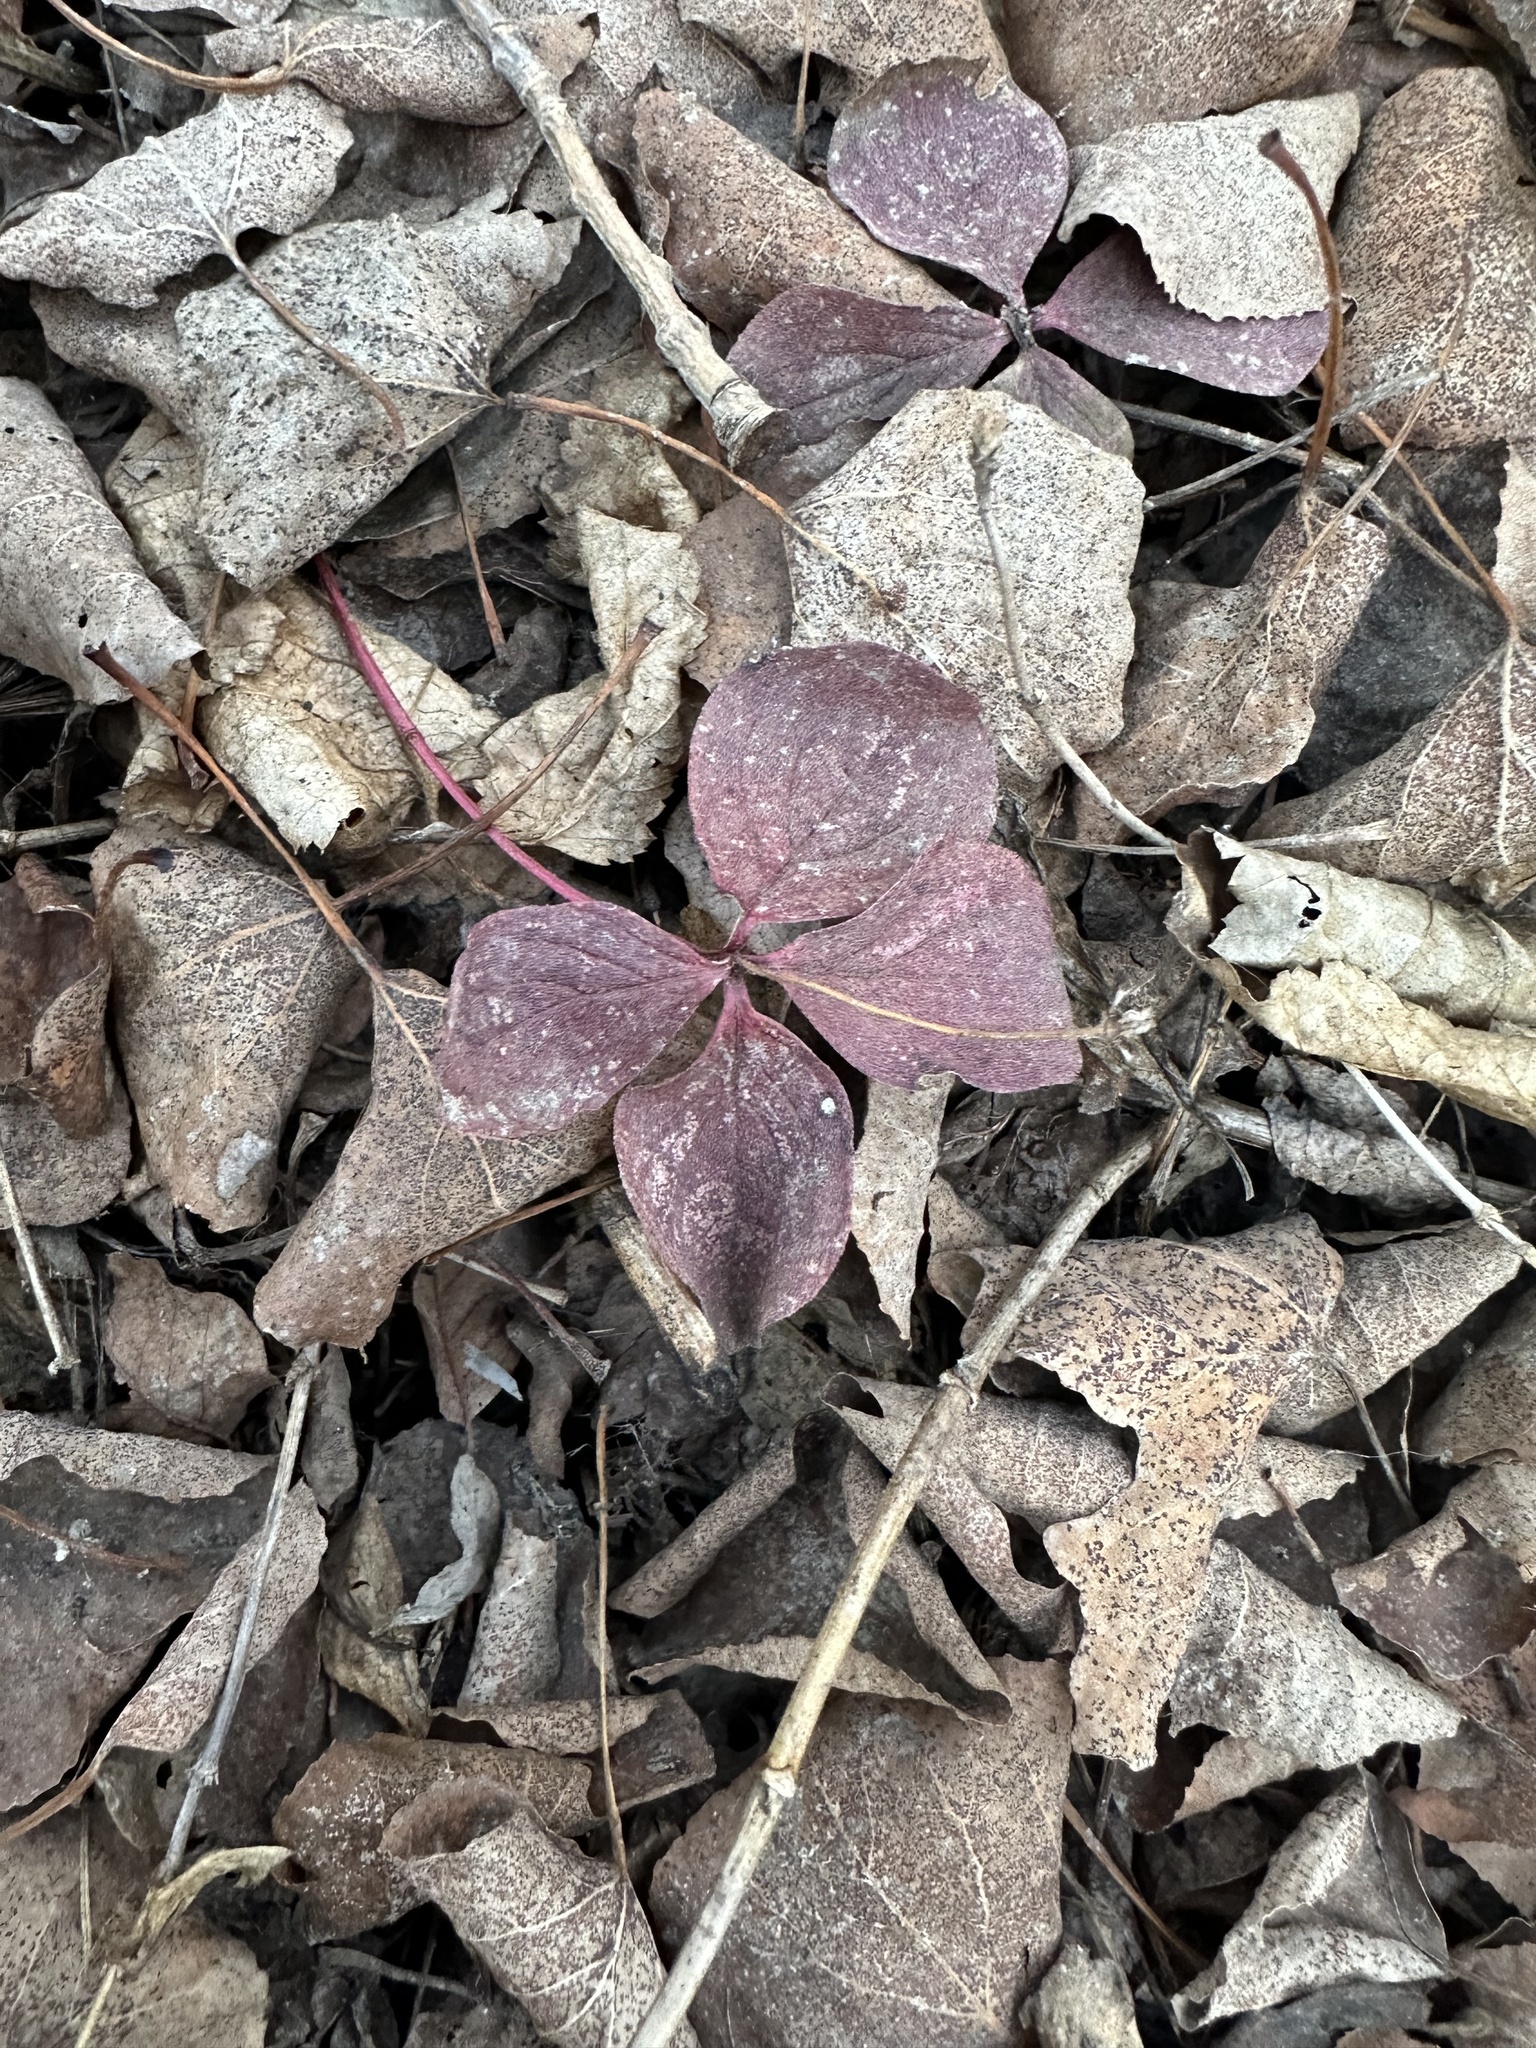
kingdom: Plantae
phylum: Tracheophyta
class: Magnoliopsida
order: Cornales
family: Cornaceae
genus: Cornus
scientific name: Cornus canadensis
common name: Creeping dogwood
